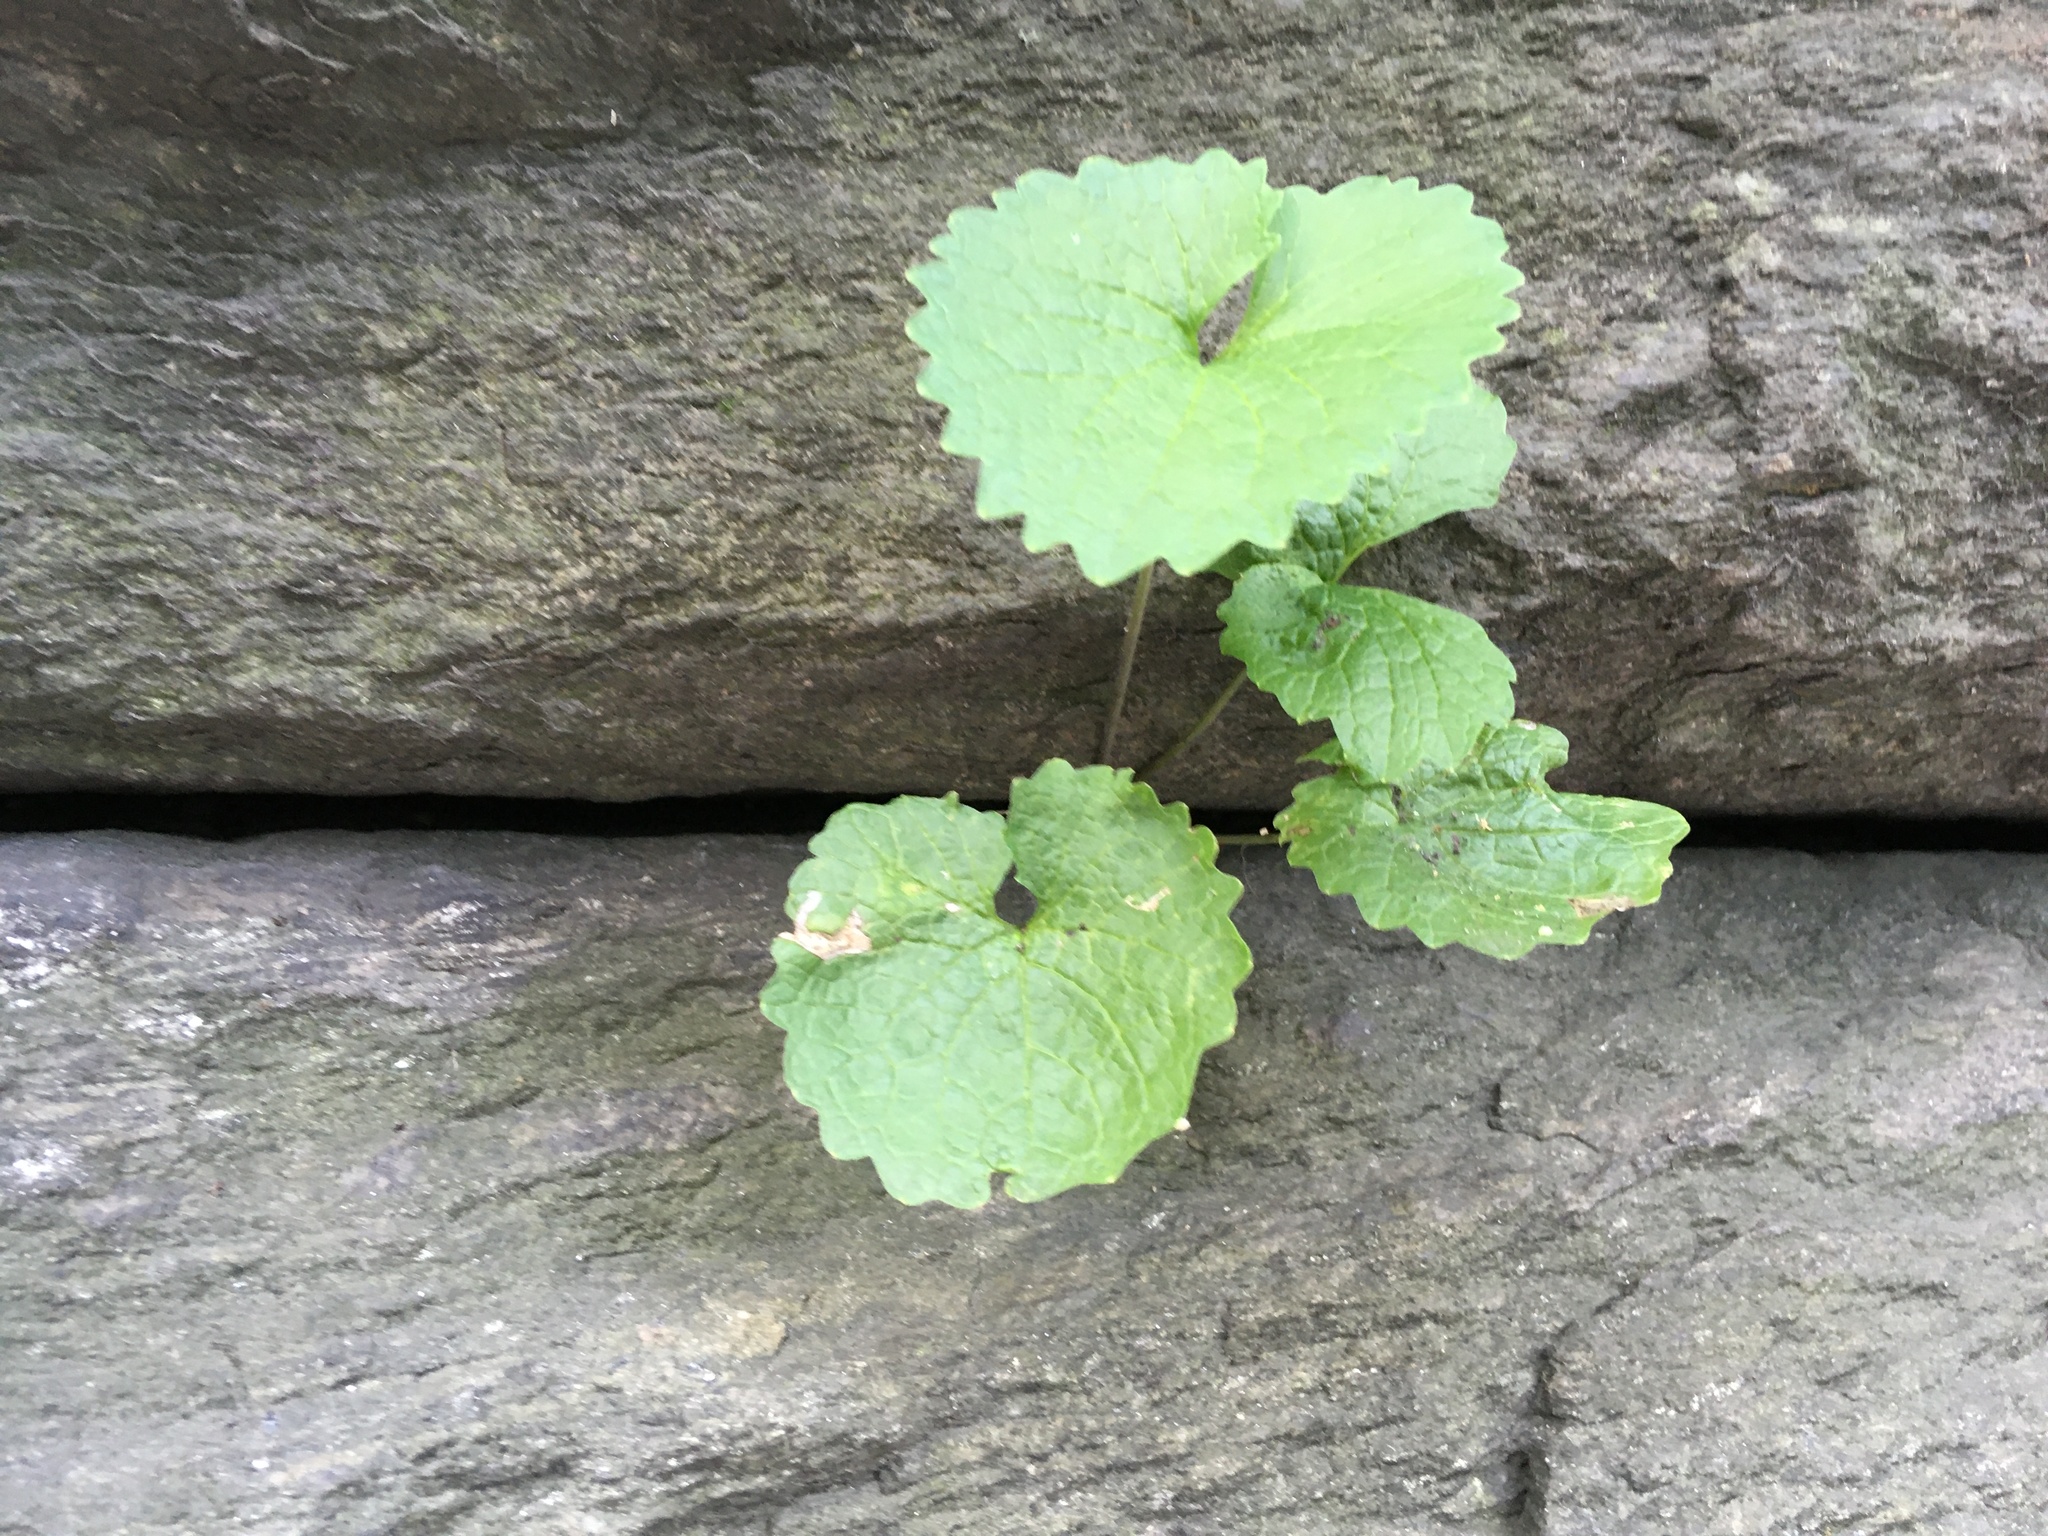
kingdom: Plantae
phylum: Tracheophyta
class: Magnoliopsida
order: Brassicales
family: Brassicaceae
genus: Alliaria
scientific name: Alliaria petiolata
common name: Garlic mustard
